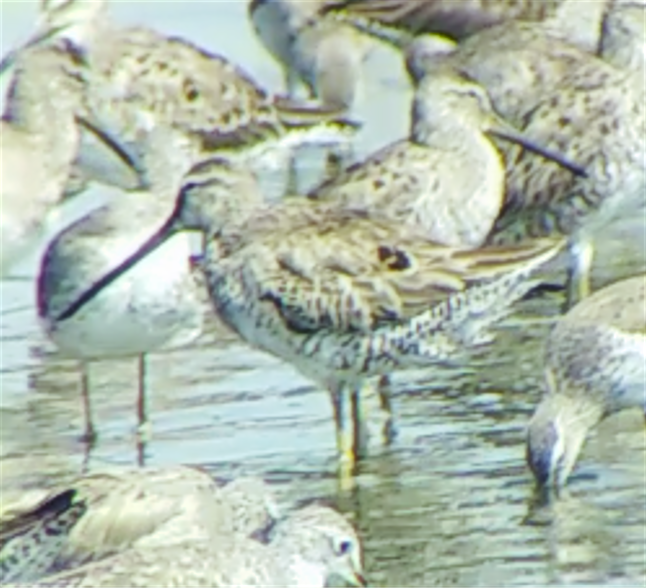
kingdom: Animalia
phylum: Chordata
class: Aves
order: Charadriiformes
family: Scolopacidae
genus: Limnodromus
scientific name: Limnodromus scolopaceus
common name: Long-billed dowitcher
